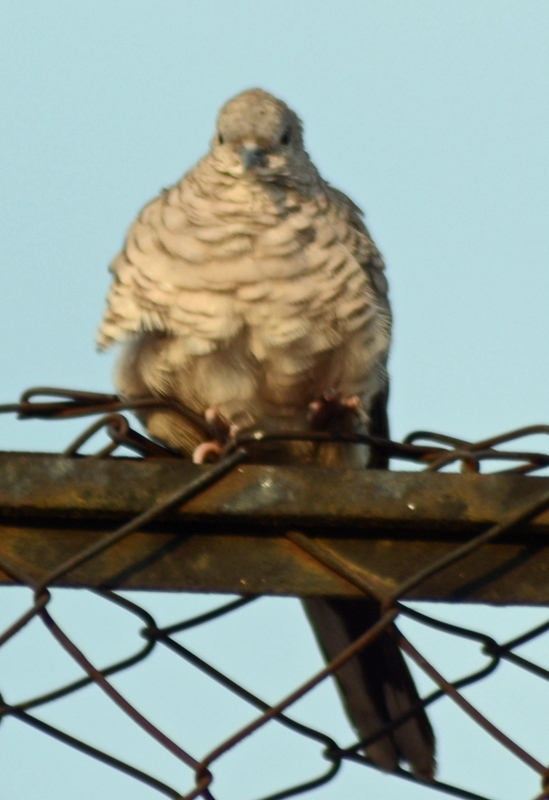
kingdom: Animalia
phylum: Chordata
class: Aves
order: Columbiformes
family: Columbidae
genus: Columbina
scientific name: Columbina inca
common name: Inca dove
